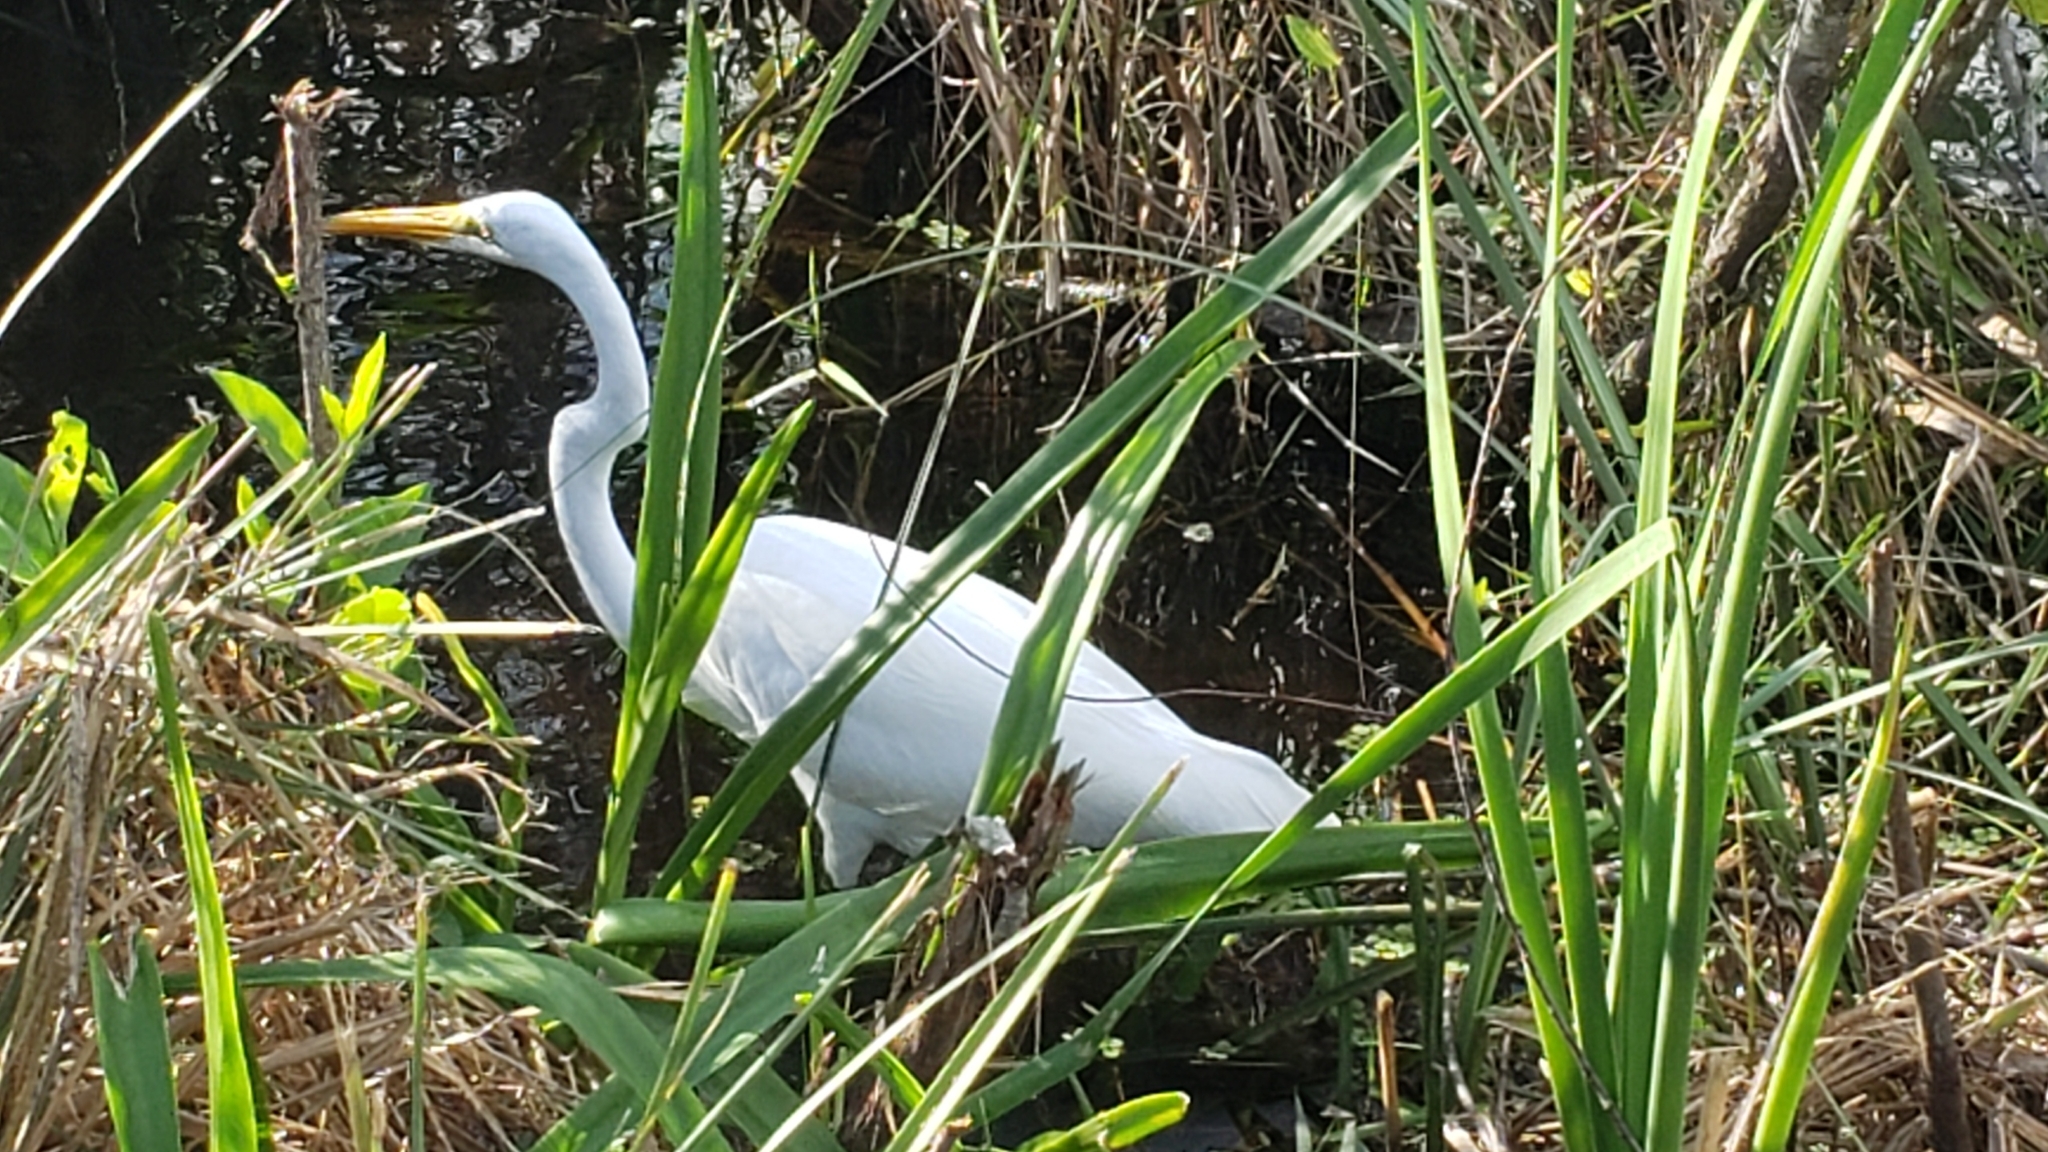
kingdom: Animalia
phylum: Chordata
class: Aves
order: Pelecaniformes
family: Ardeidae
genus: Ardea
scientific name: Ardea alba
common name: Great egret
